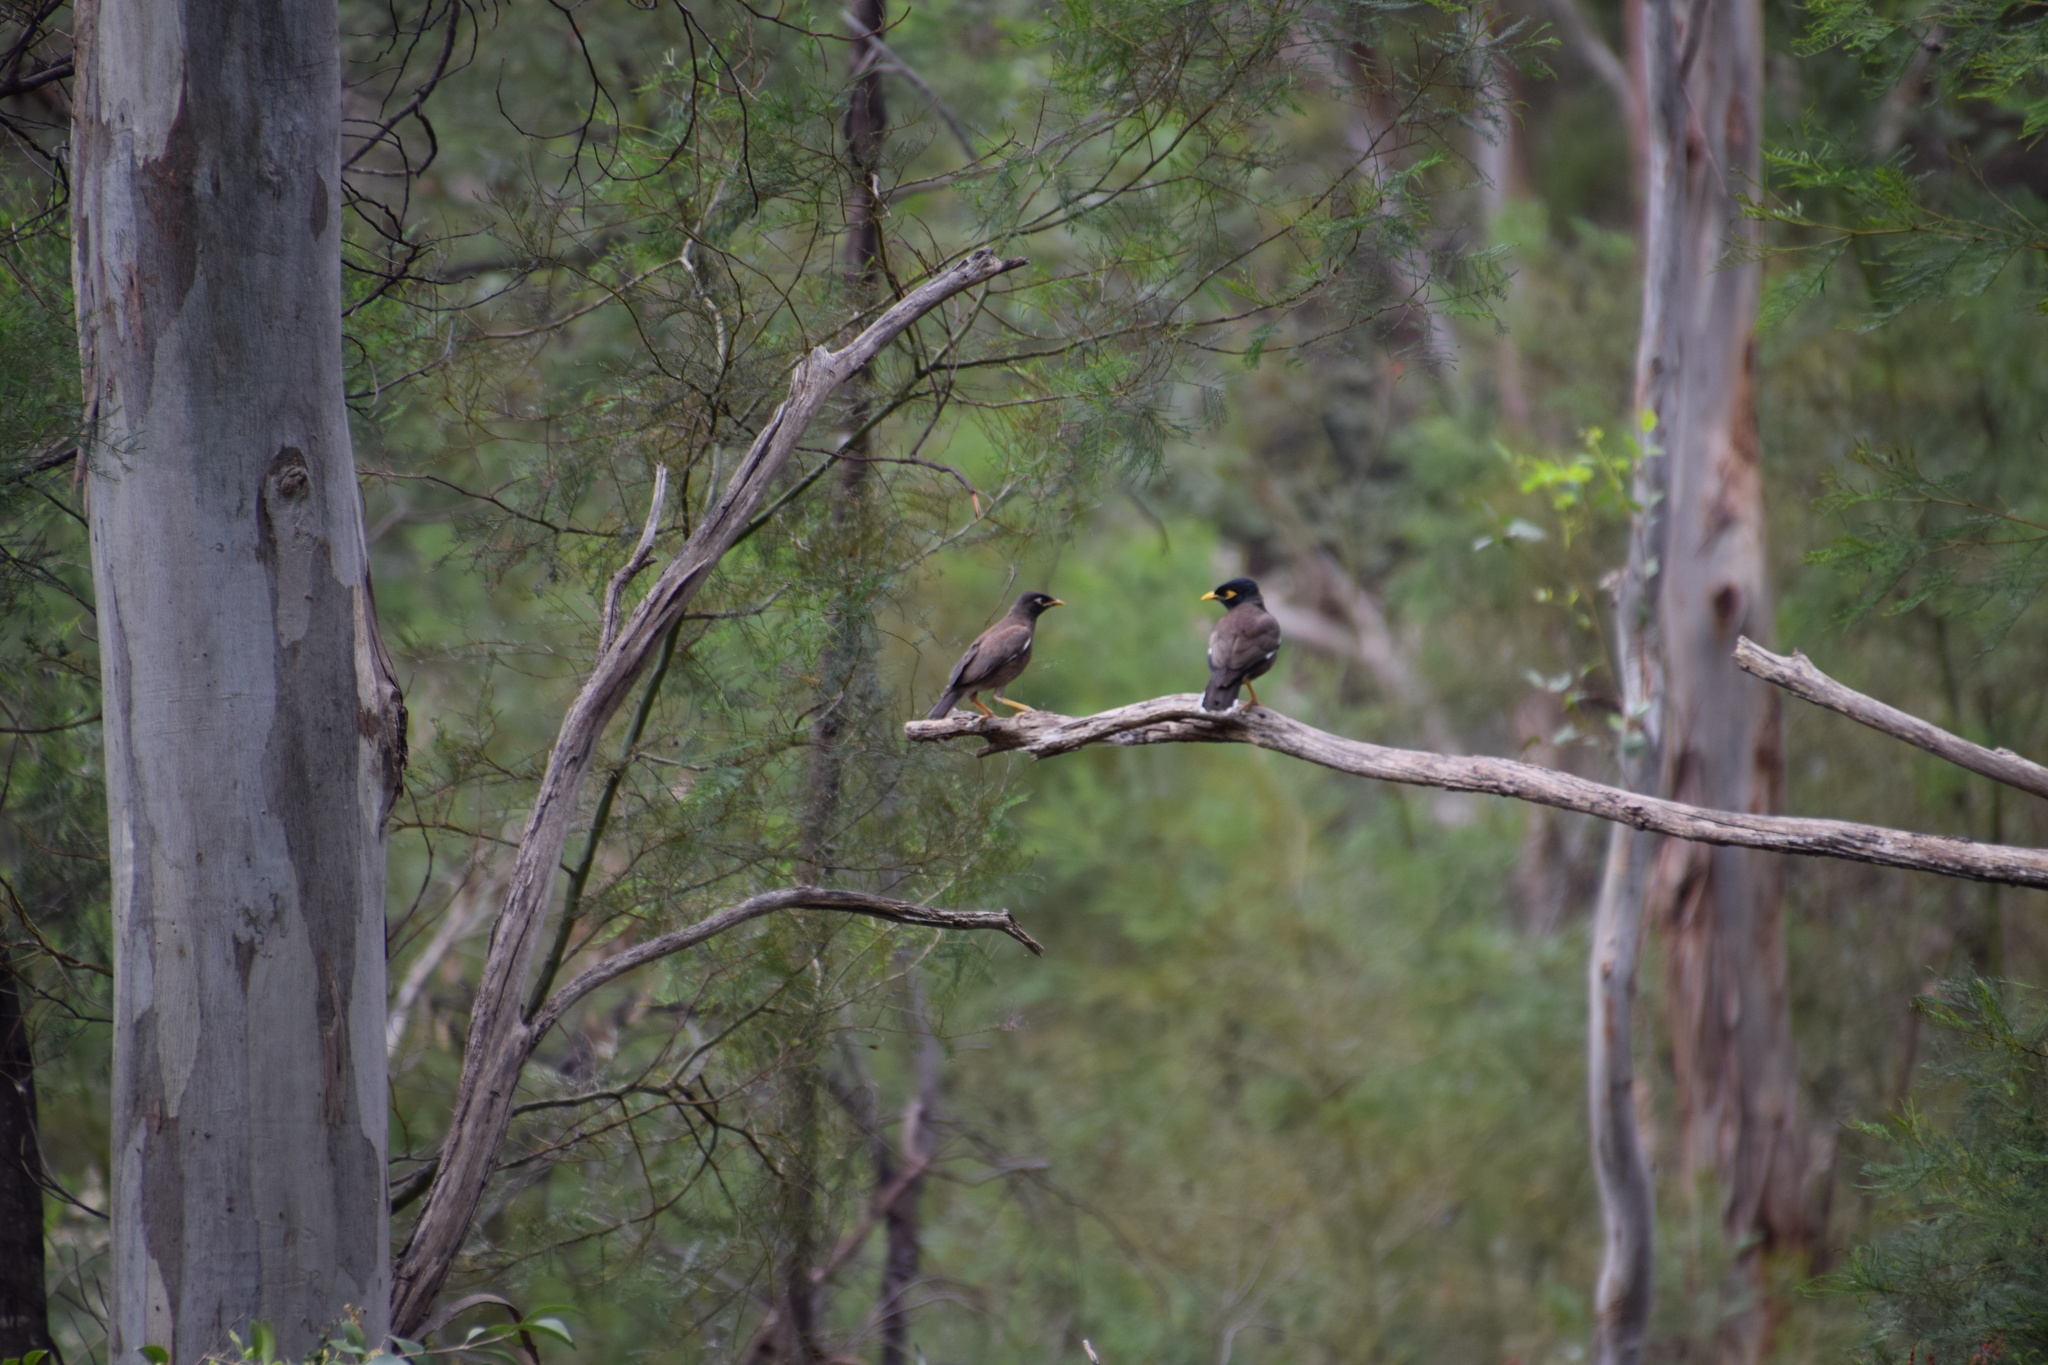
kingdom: Animalia
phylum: Chordata
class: Aves
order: Passeriformes
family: Sturnidae
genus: Acridotheres
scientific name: Acridotheres tristis
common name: Common myna
